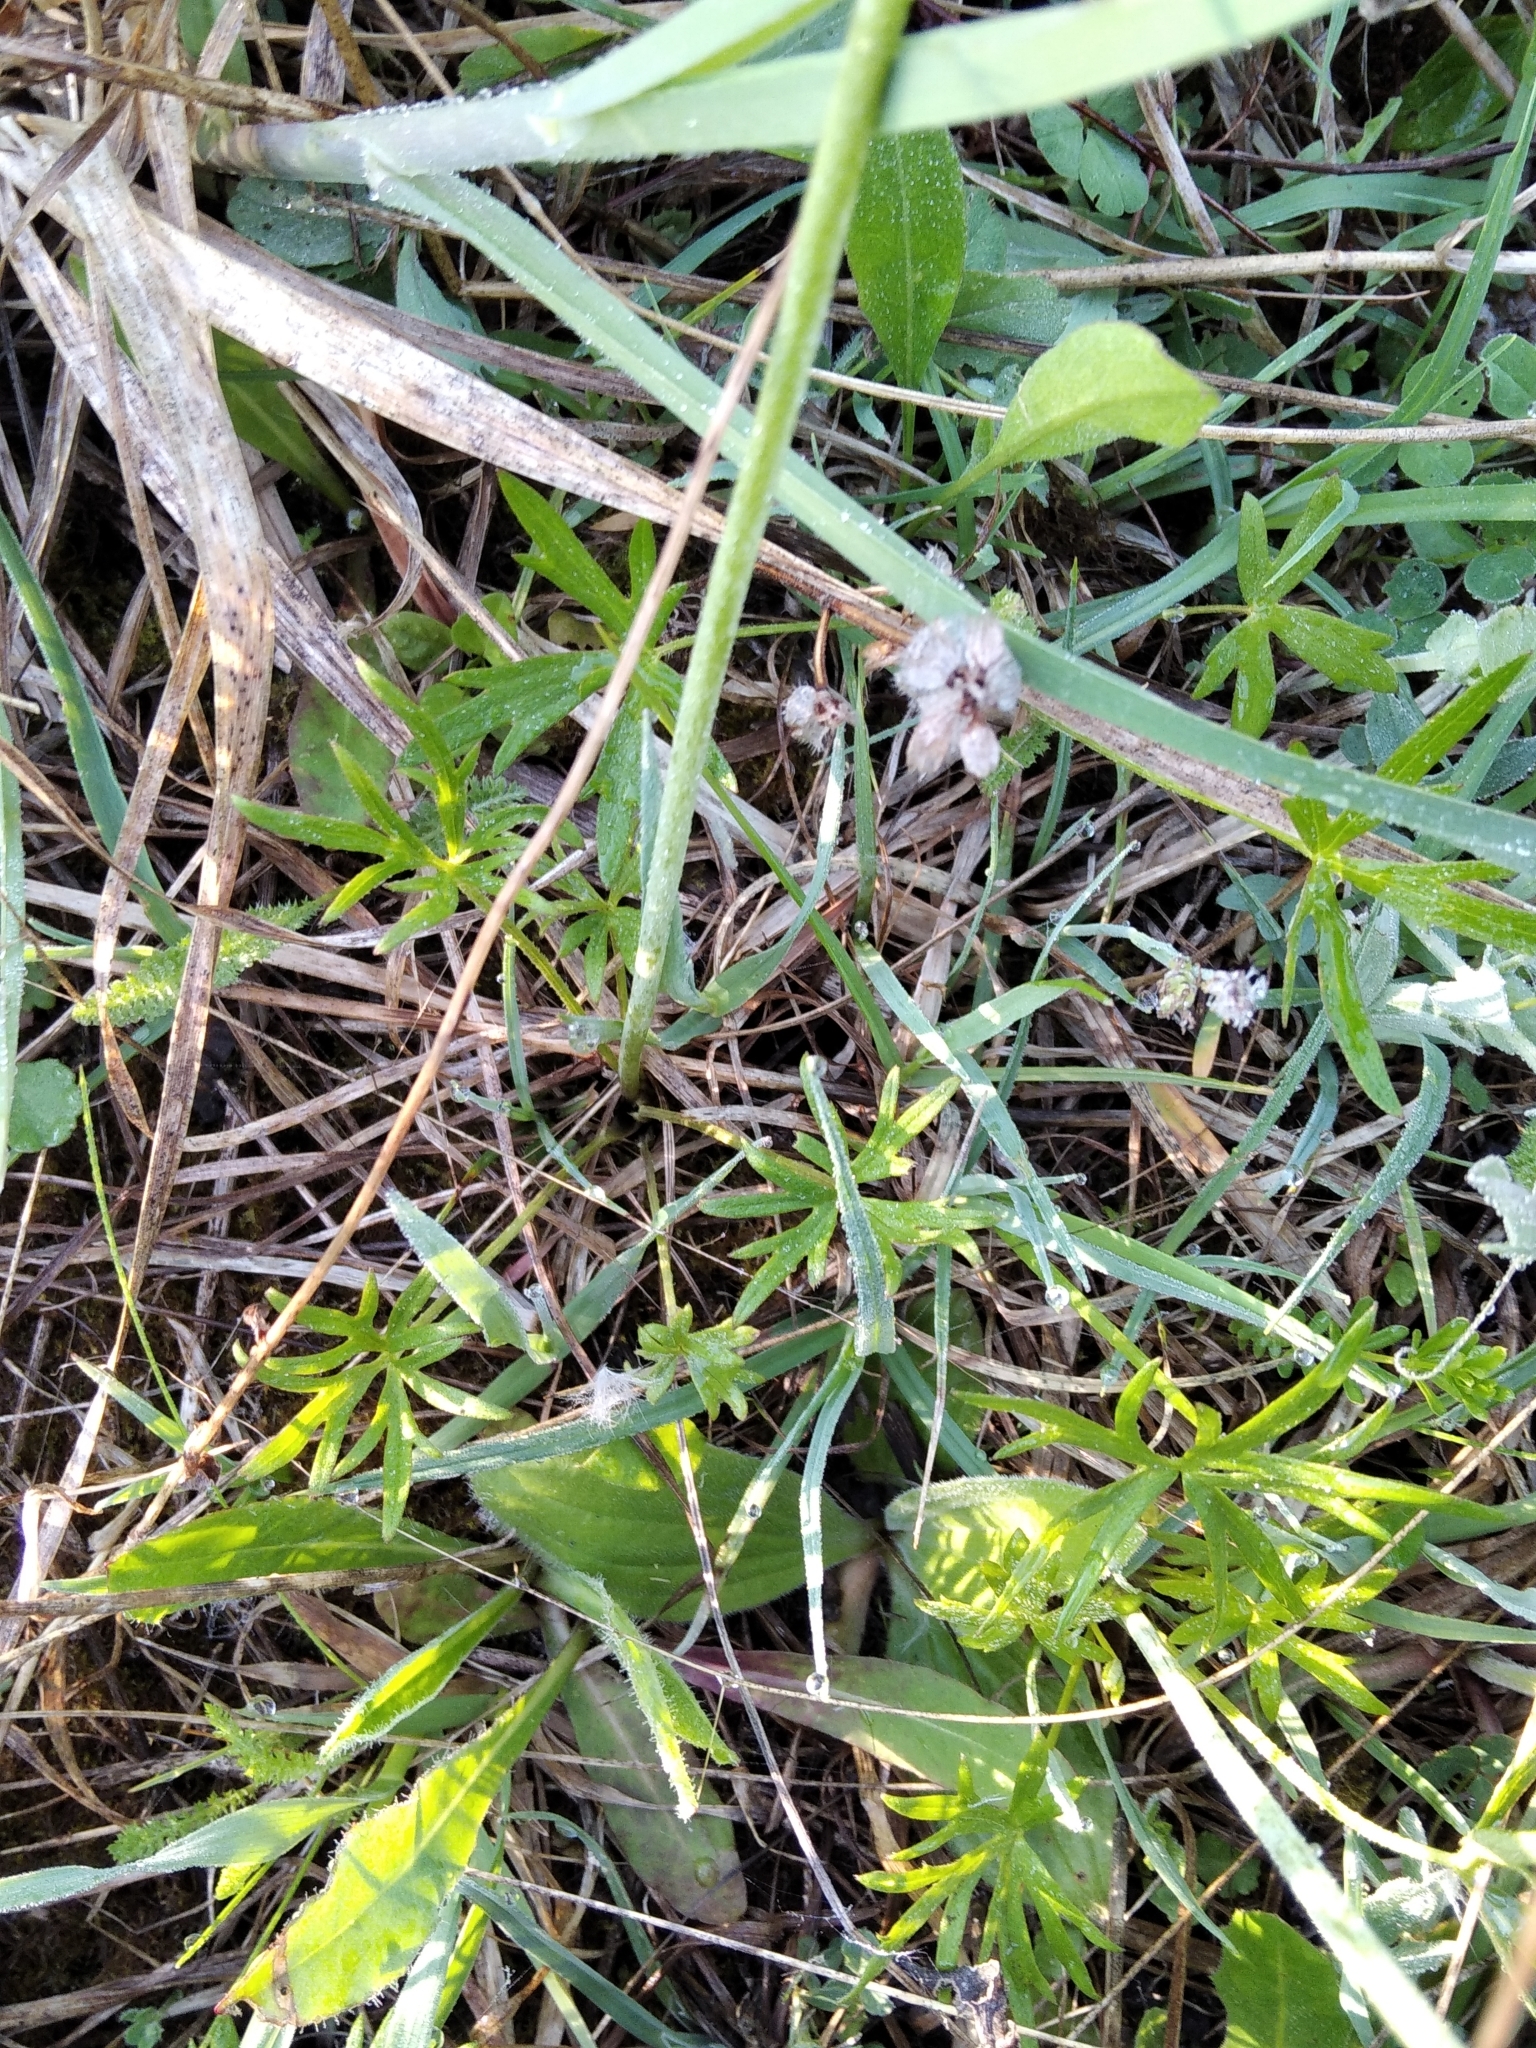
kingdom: Plantae
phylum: Tracheophyta
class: Magnoliopsida
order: Ranunculales
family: Ranunculaceae
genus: Ranunculus
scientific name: Ranunculus acris
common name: Meadow buttercup
